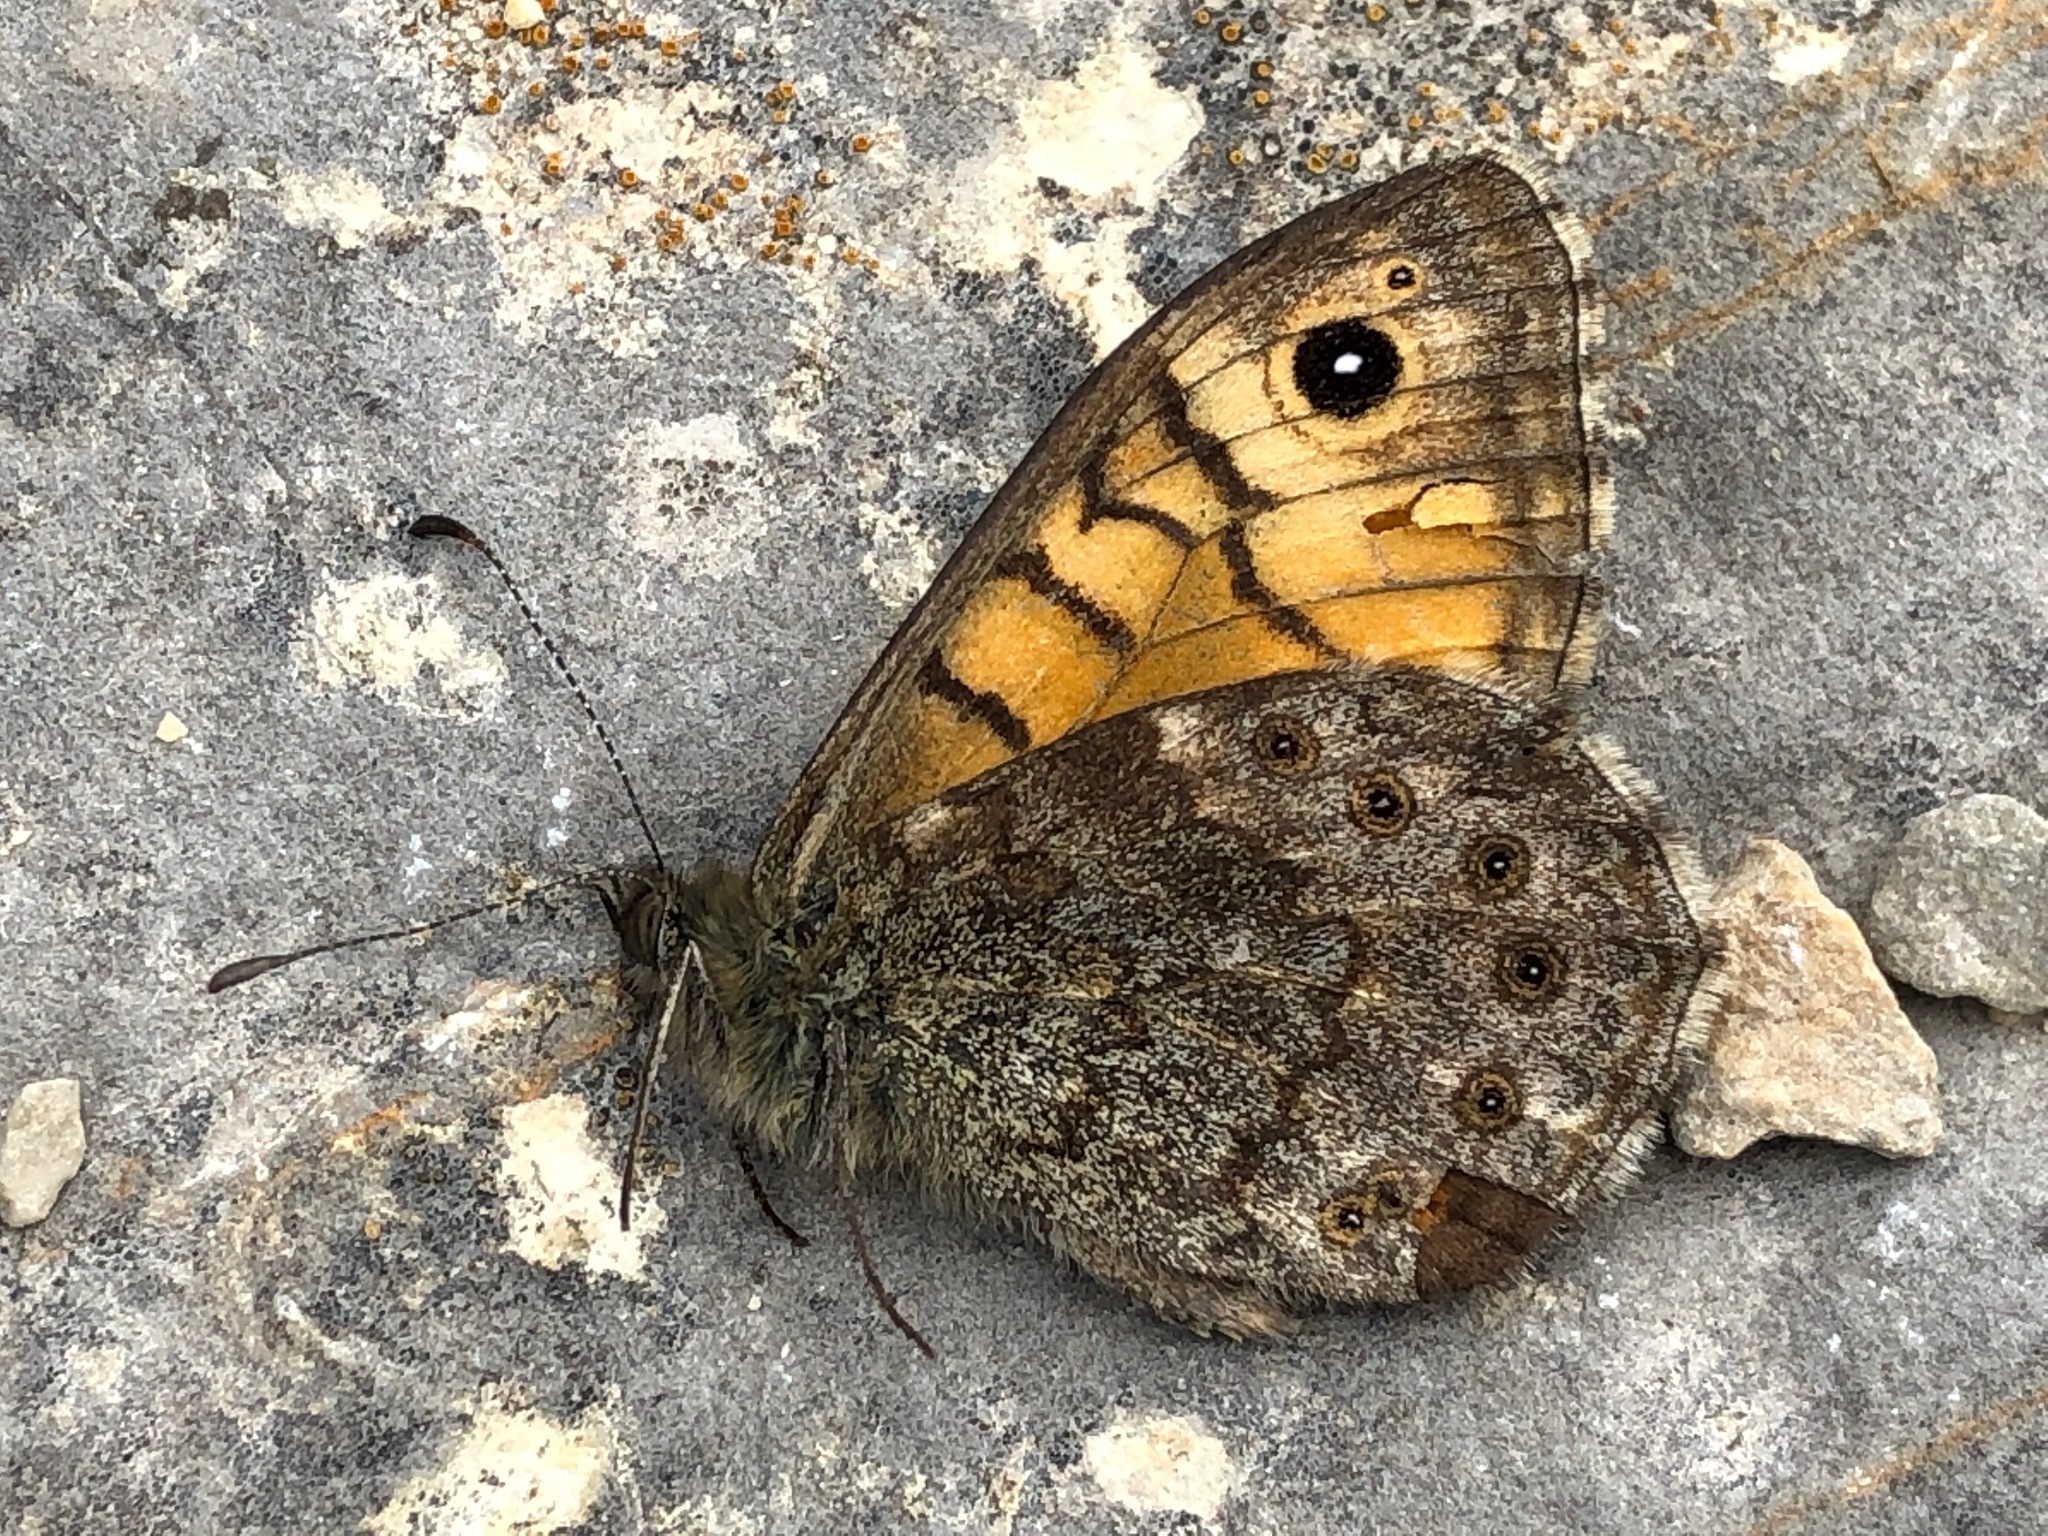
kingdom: Animalia
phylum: Arthropoda
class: Insecta
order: Lepidoptera
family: Nymphalidae
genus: Pararge
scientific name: Pararge Lasiommata megera
